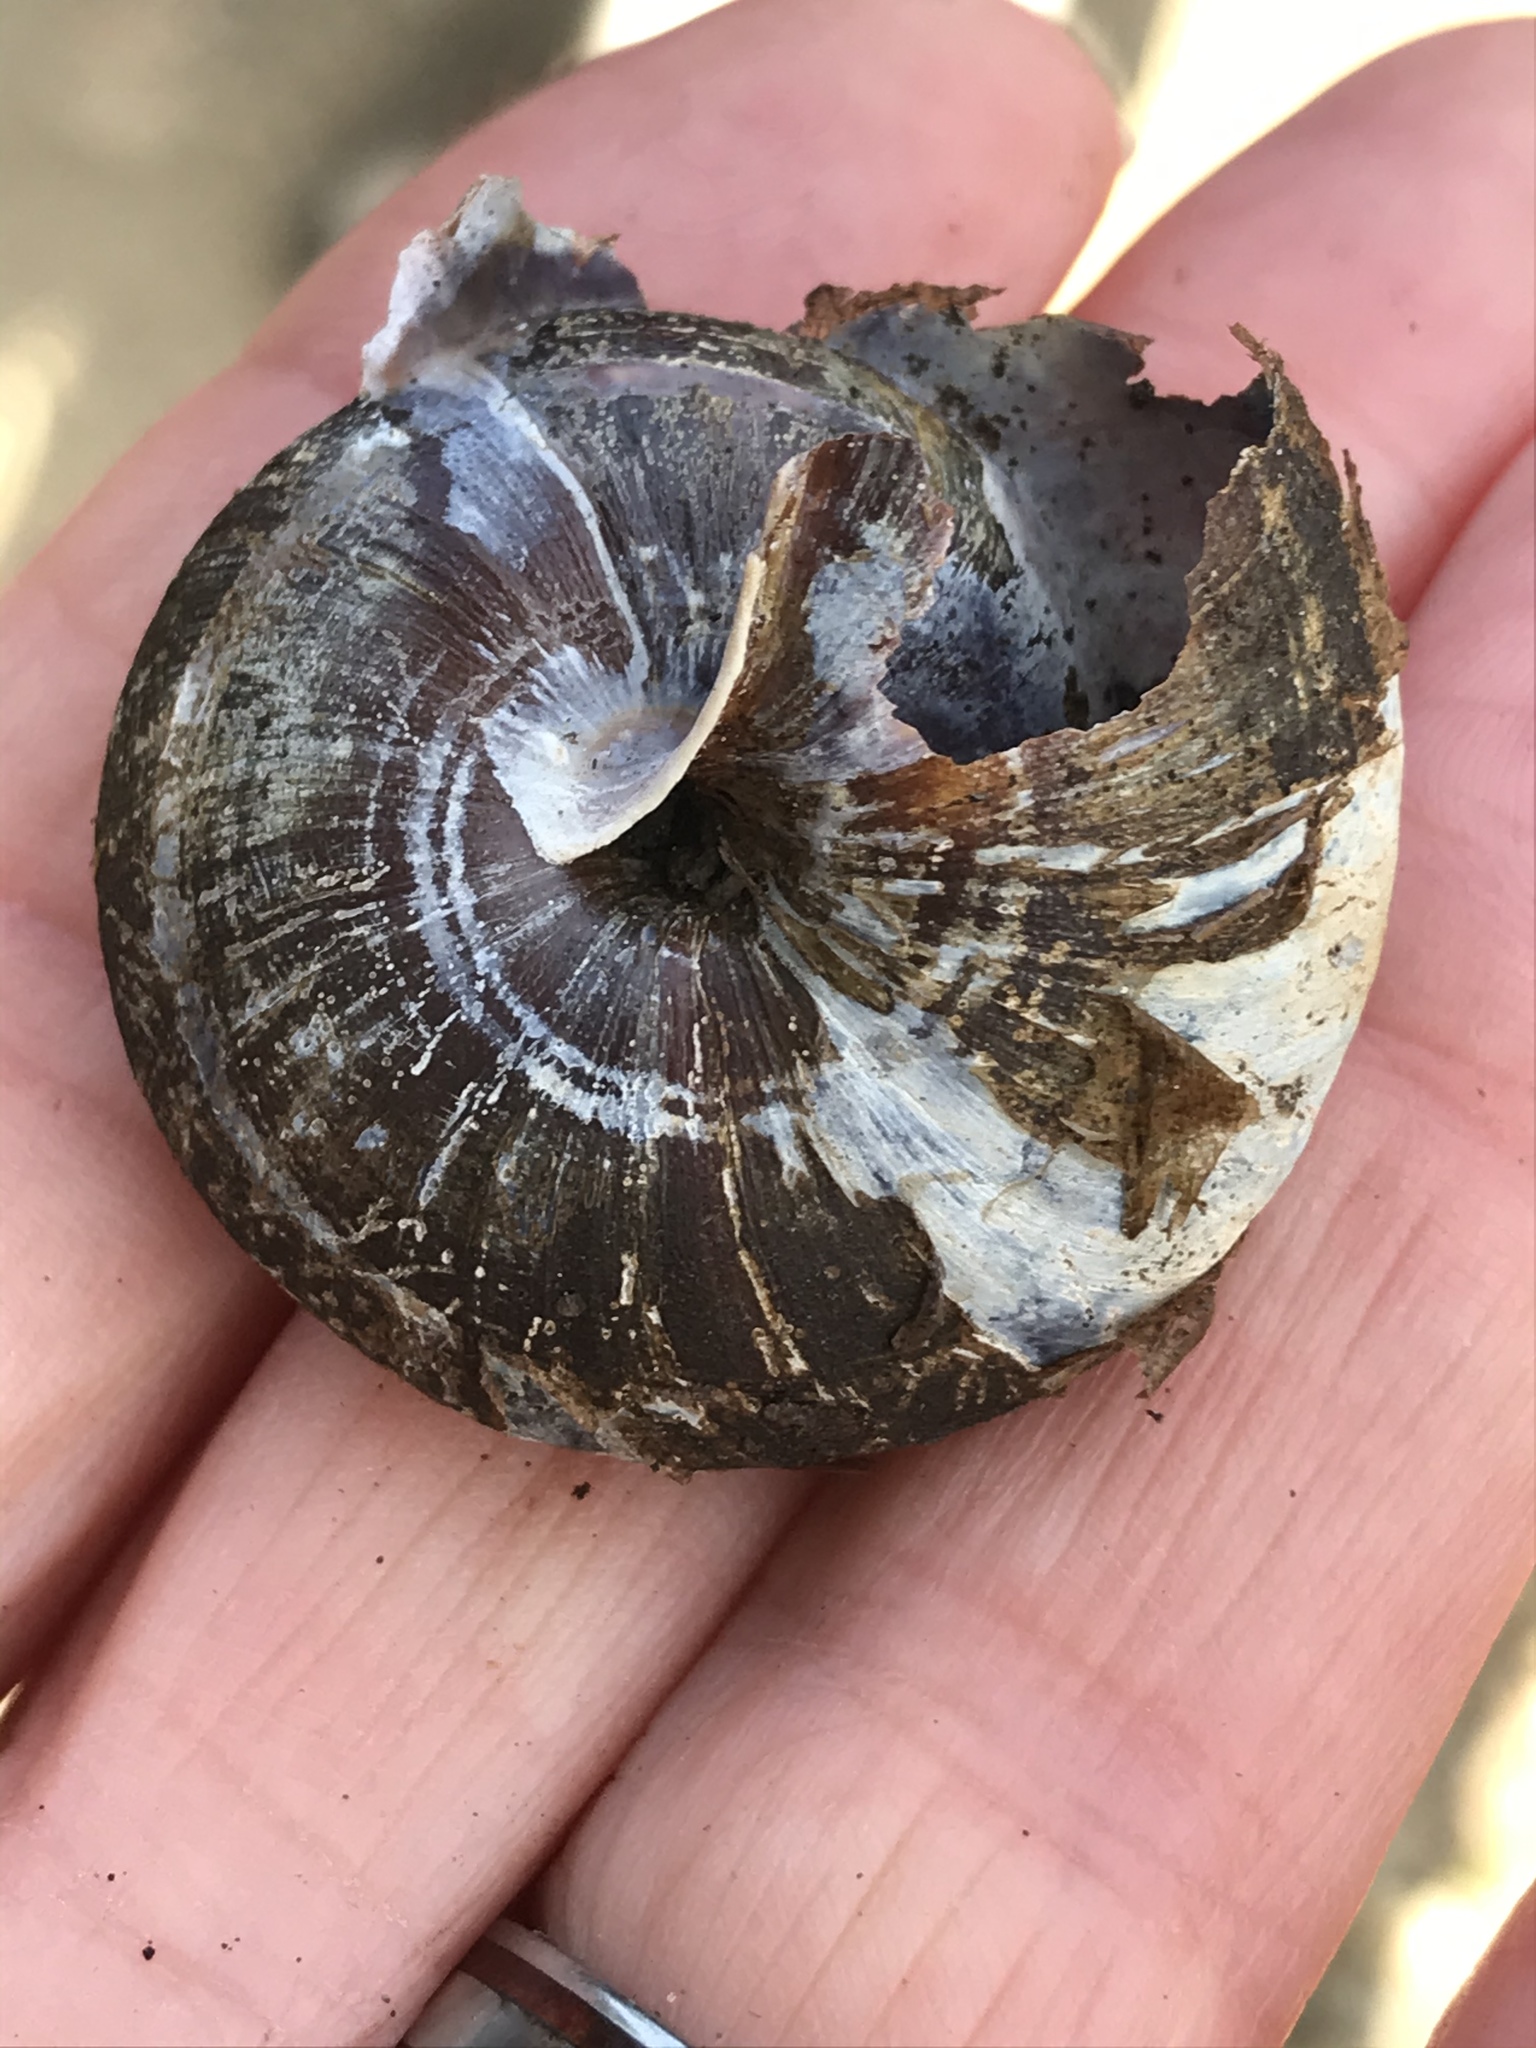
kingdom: Animalia
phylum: Mollusca
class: Gastropoda
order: Stylommatophora
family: Xanthonychidae
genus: Monadenia
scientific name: Monadenia infumata
